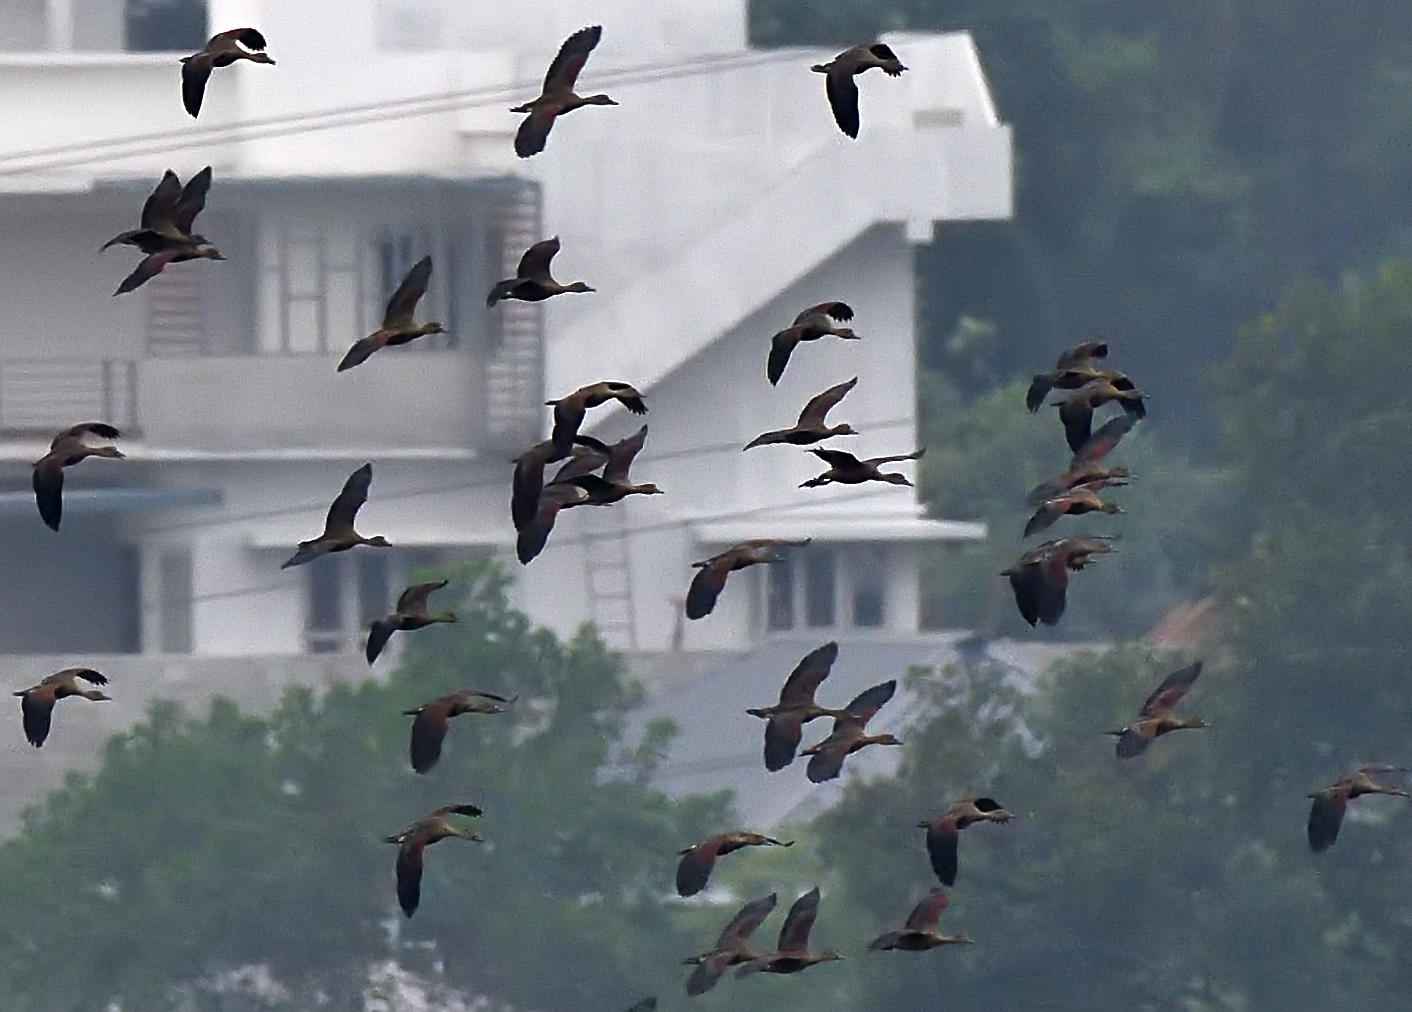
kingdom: Animalia
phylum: Chordata
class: Aves
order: Anseriformes
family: Anatidae
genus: Dendrocygna
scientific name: Dendrocygna javanica
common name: Lesser whistling-duck
